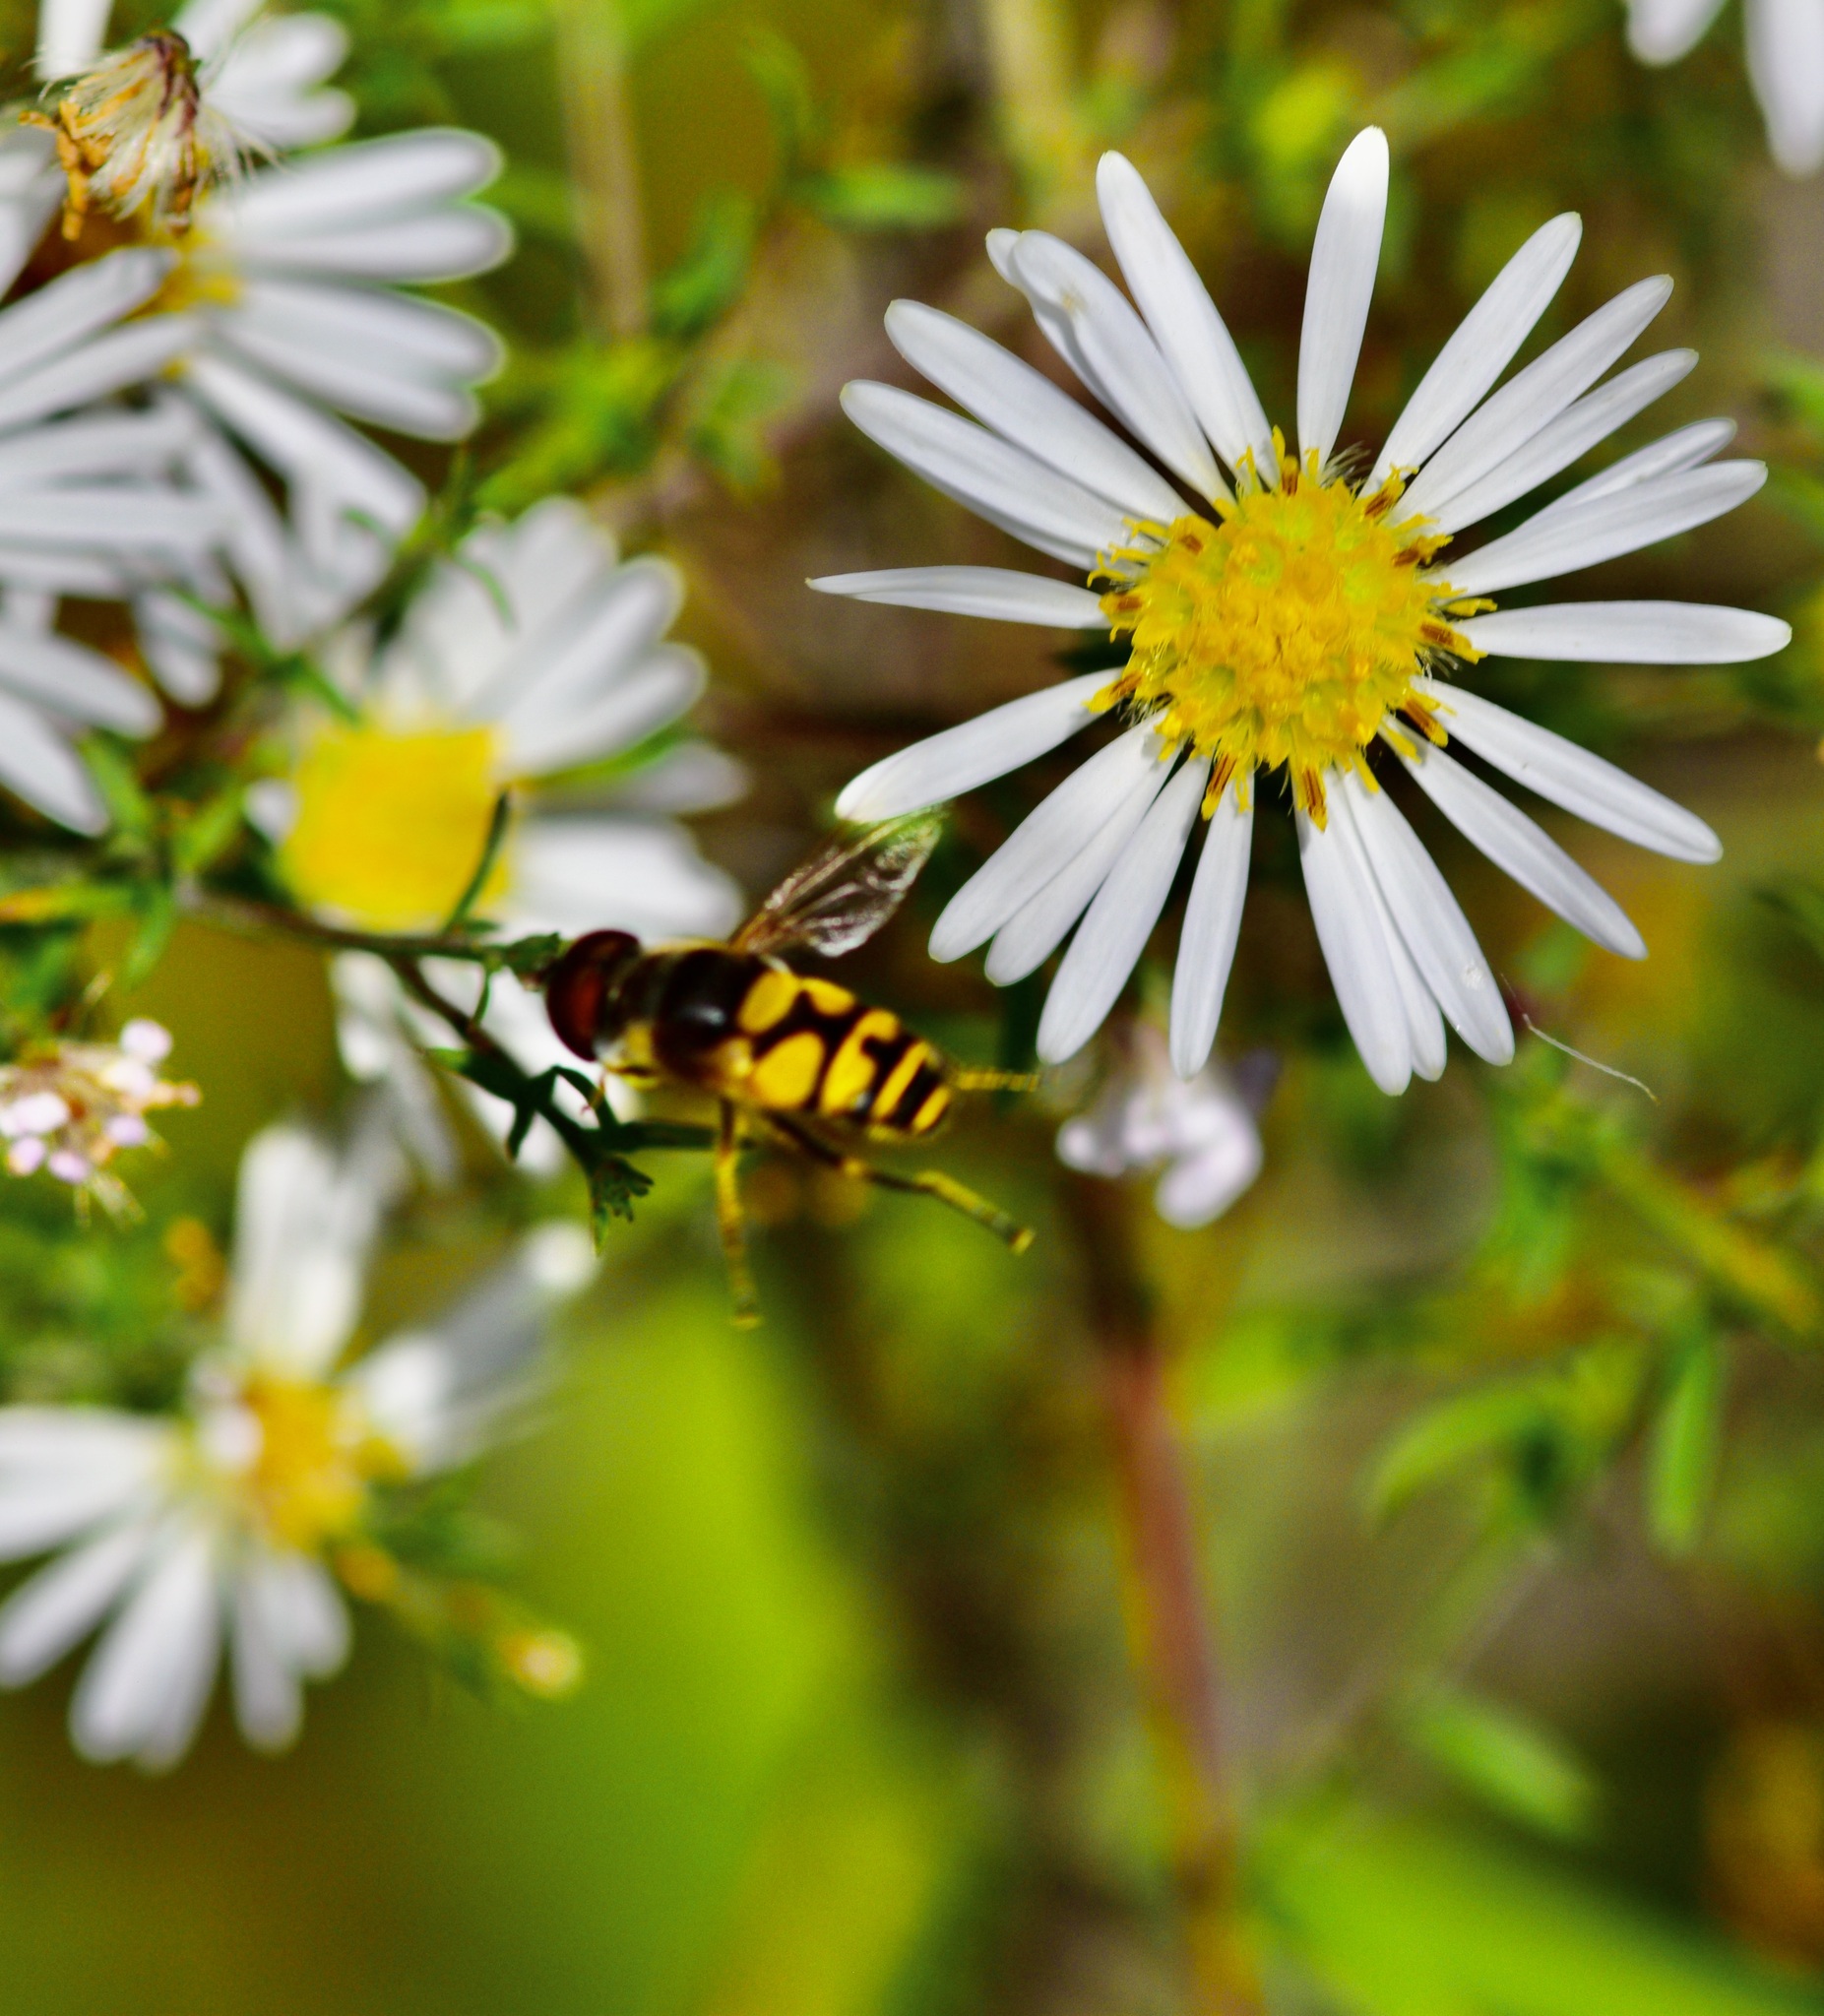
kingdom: Animalia
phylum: Arthropoda
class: Insecta
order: Diptera
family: Syrphidae
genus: Eristalis
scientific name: Eristalis transversa
